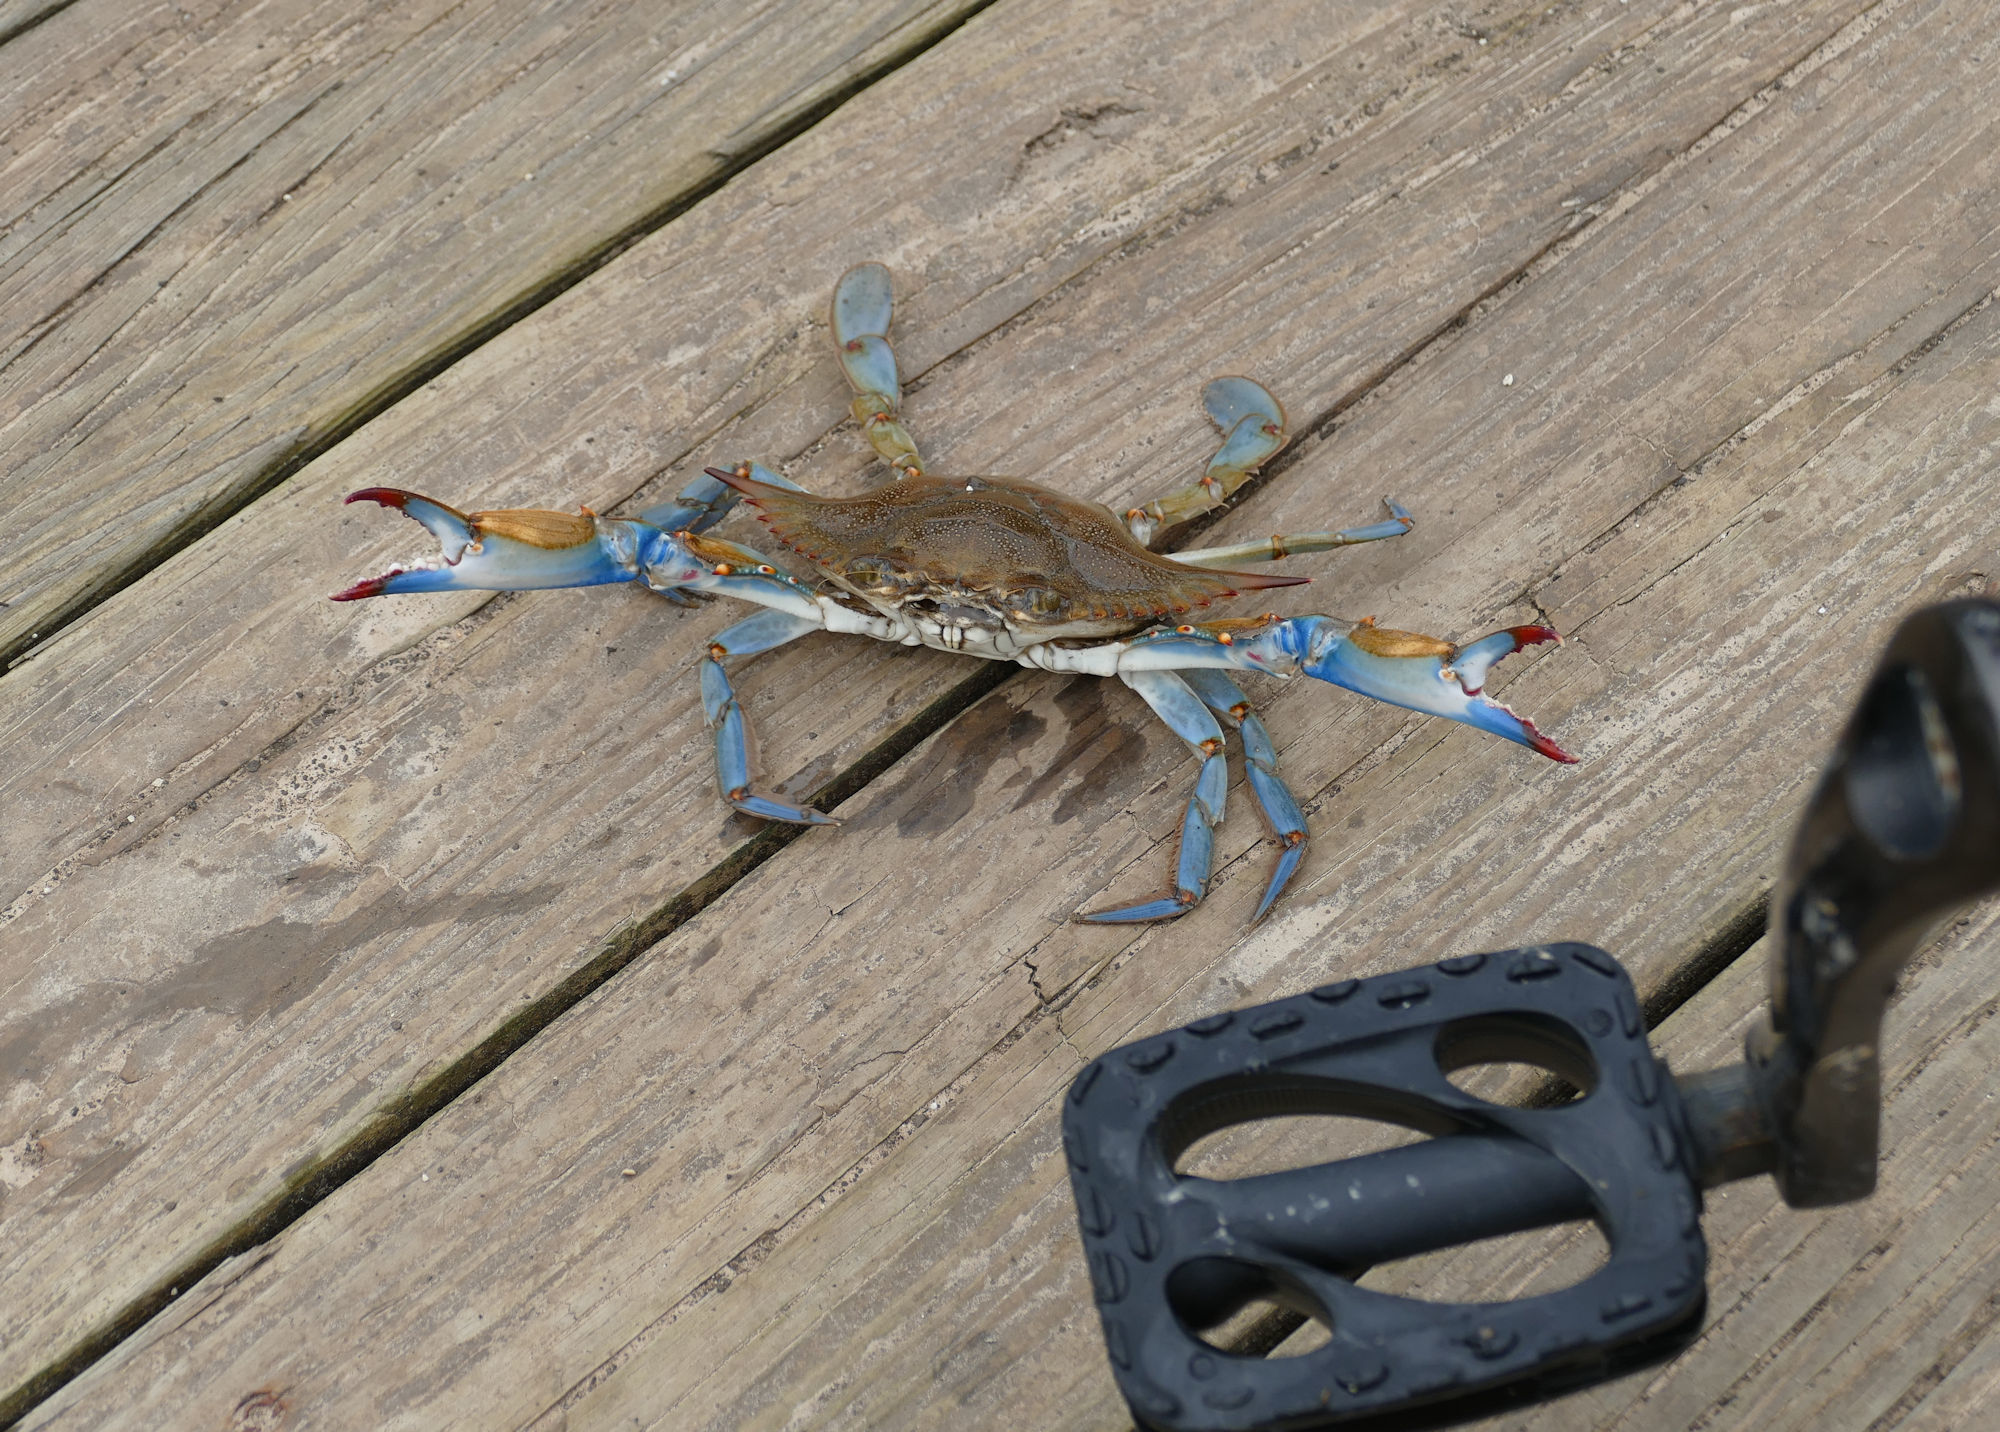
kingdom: Animalia
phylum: Arthropoda
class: Malacostraca
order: Decapoda
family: Portunidae
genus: Callinectes
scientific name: Callinectes sapidus
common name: Blue crab
